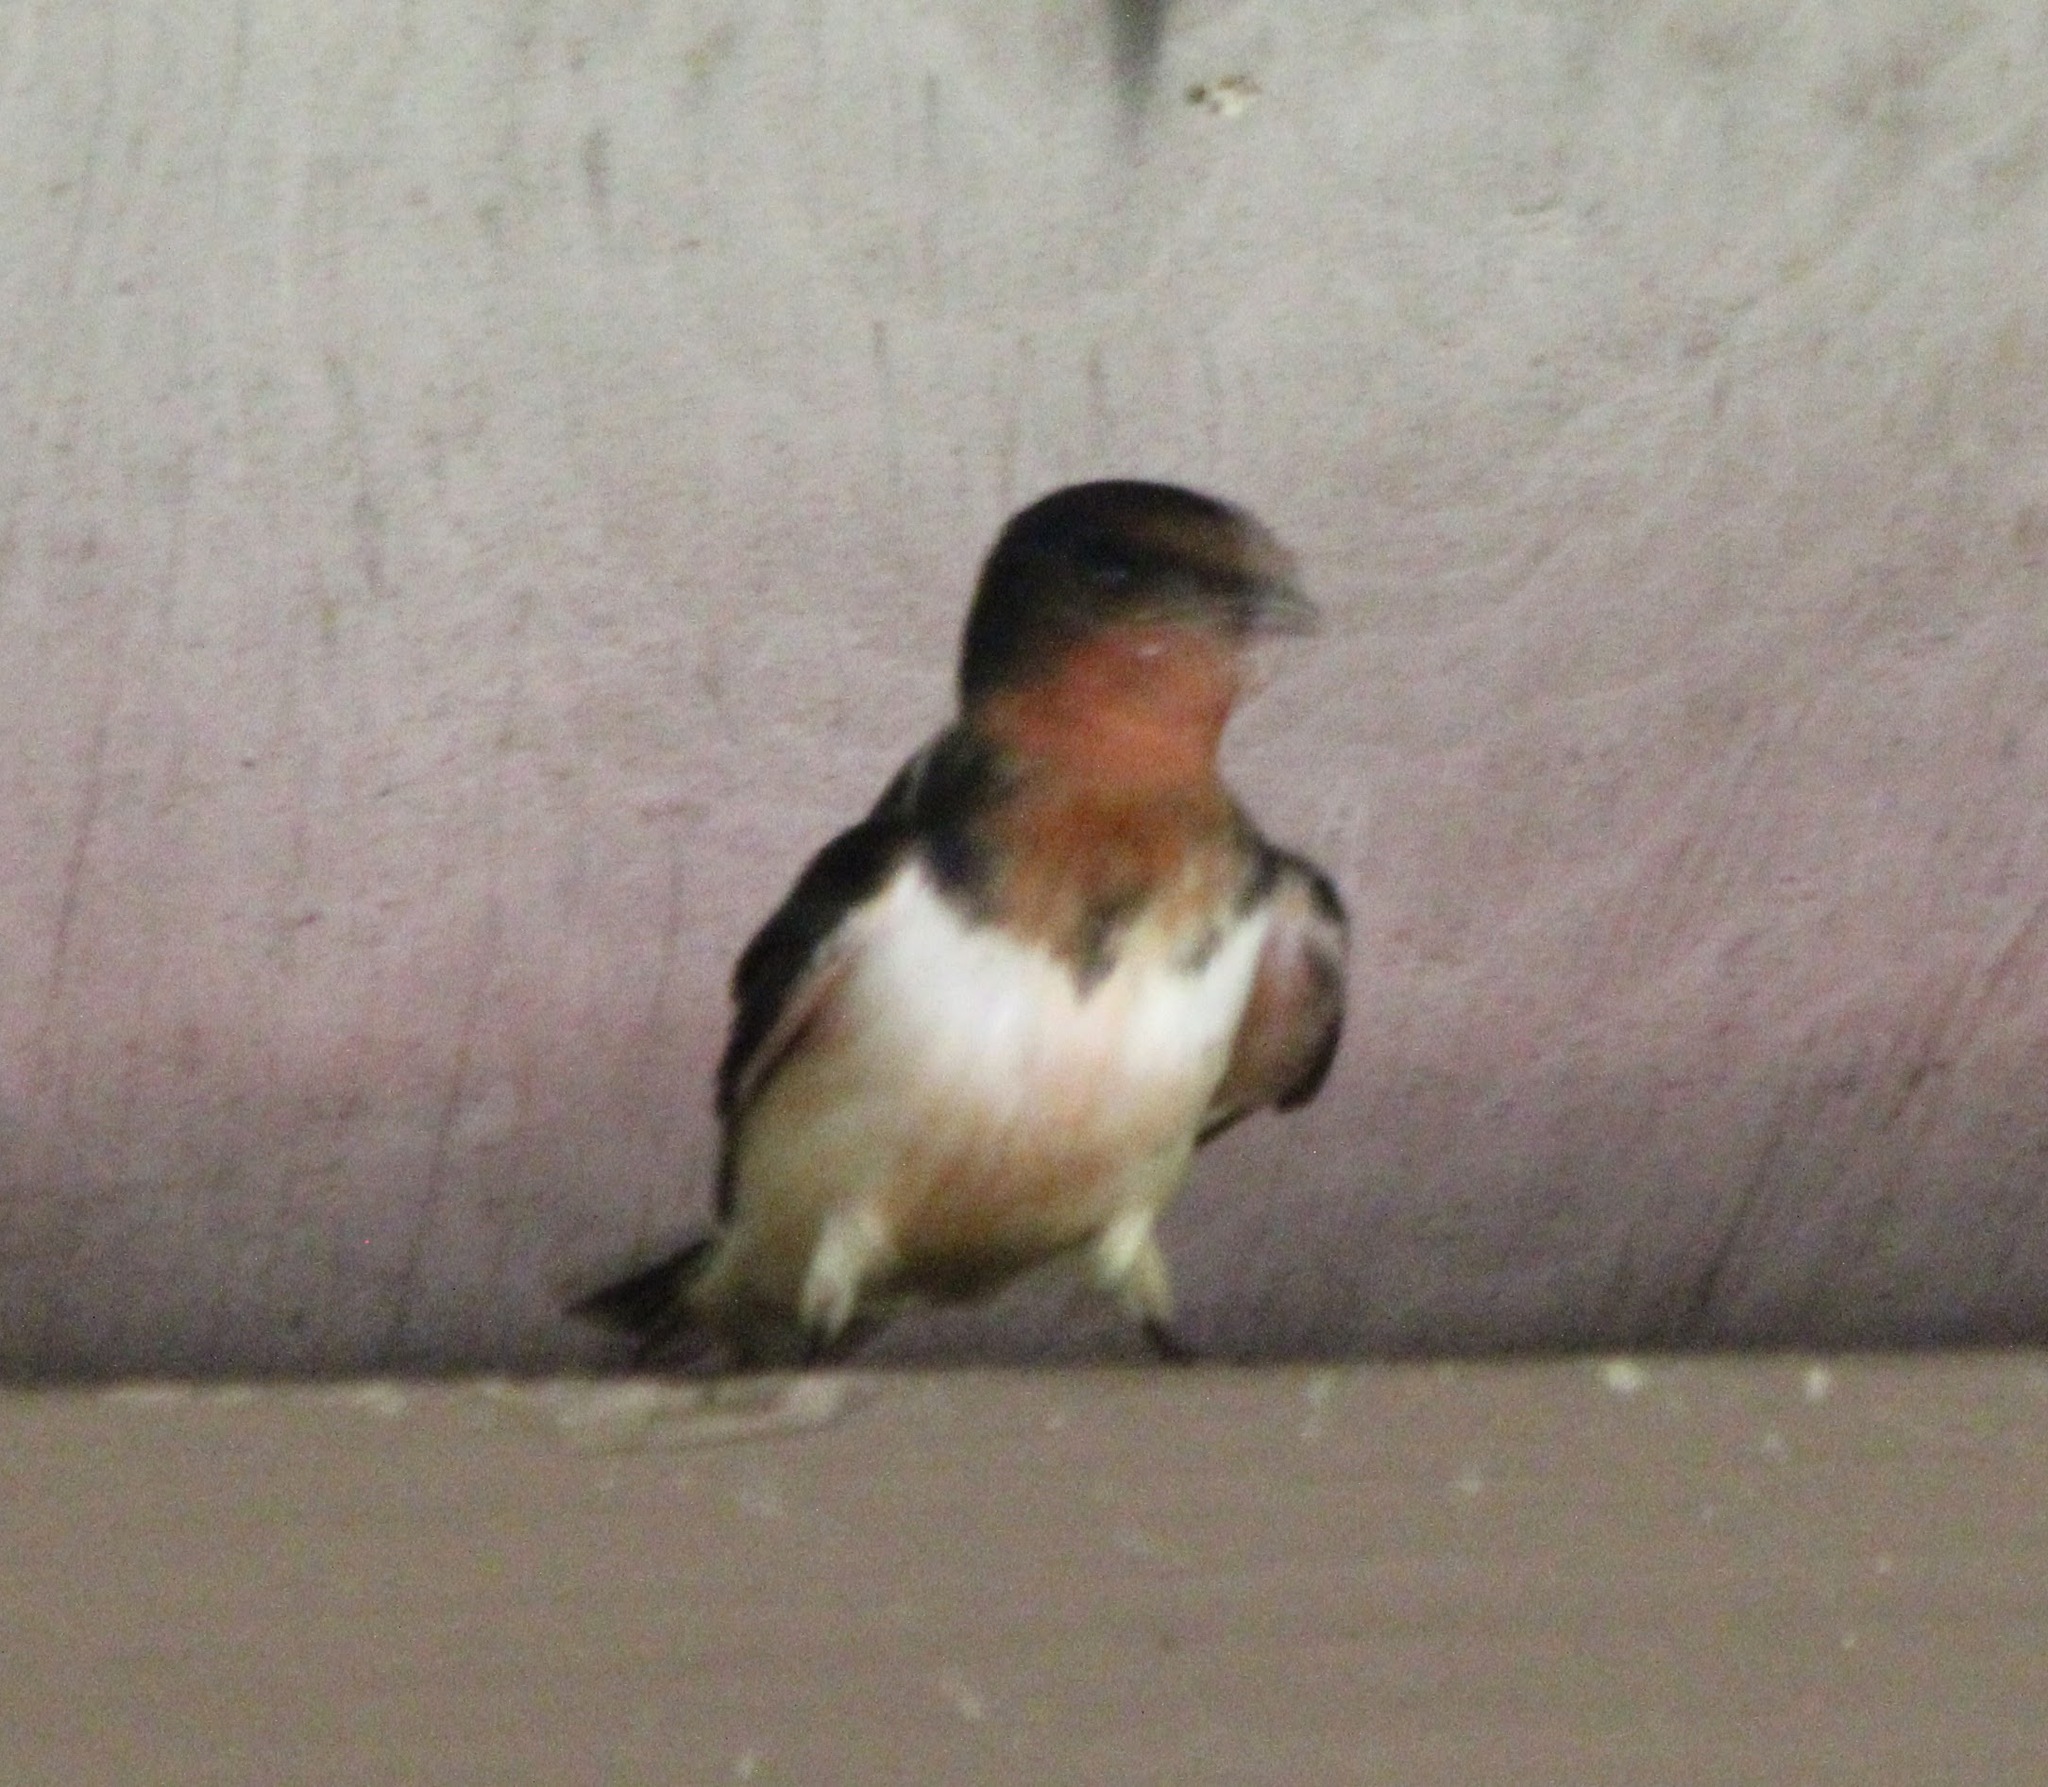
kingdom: Animalia
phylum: Chordata
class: Aves
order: Passeriformes
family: Hirundinidae
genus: Hirundo
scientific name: Hirundo rustica
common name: Barn swallow
